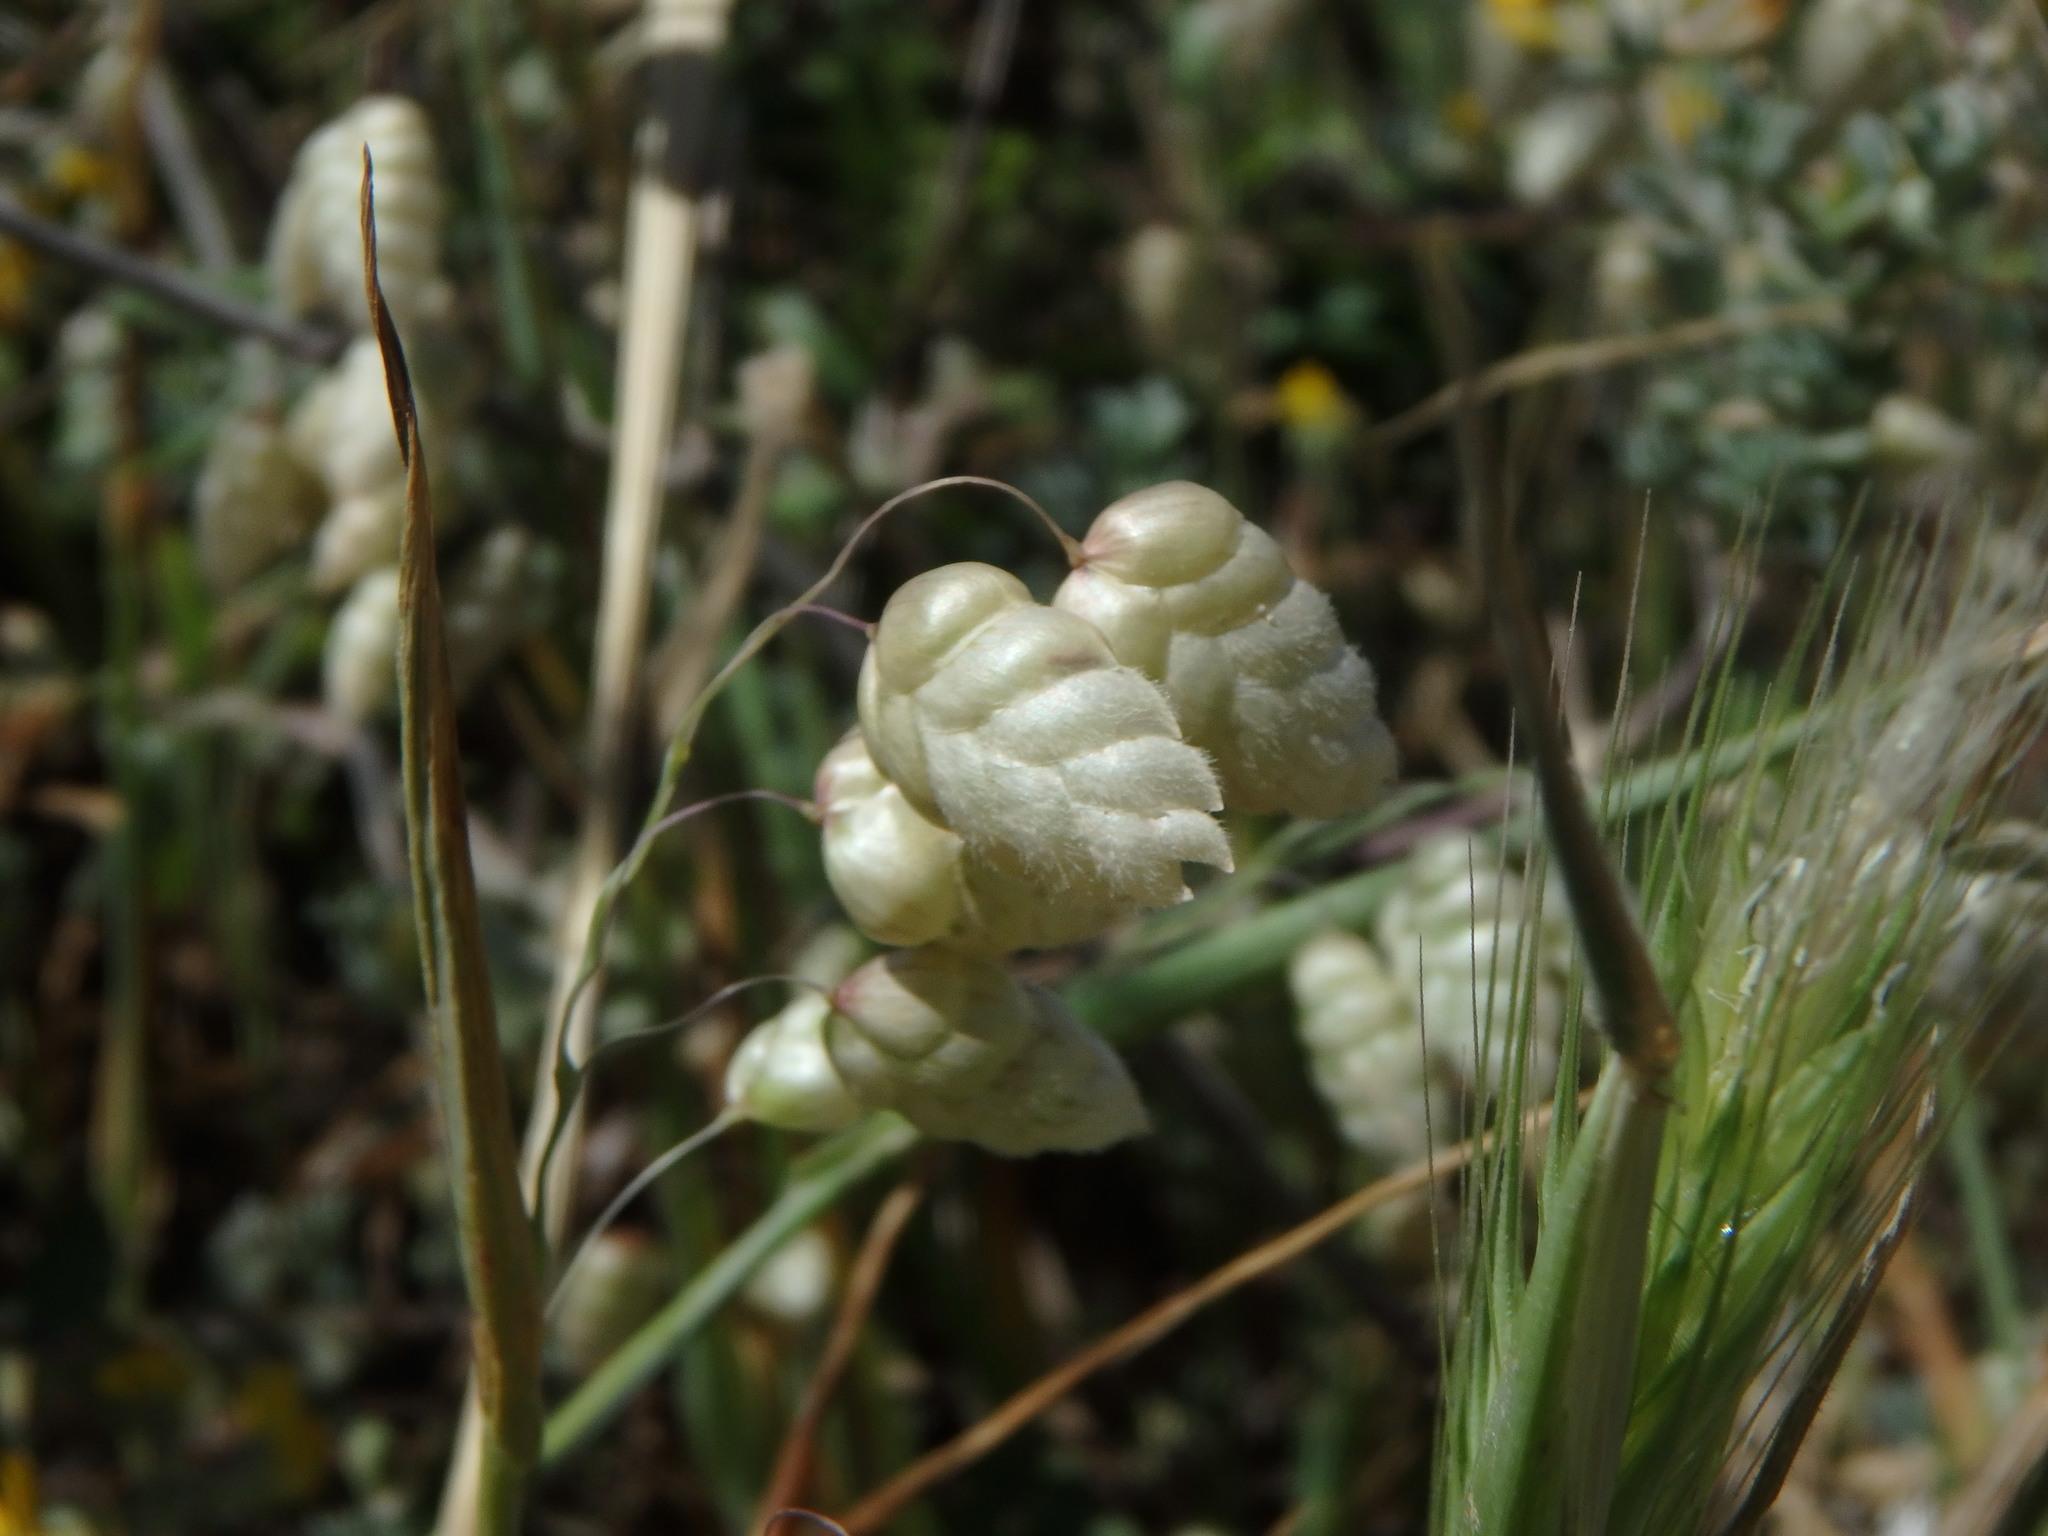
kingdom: Plantae
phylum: Tracheophyta
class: Liliopsida
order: Poales
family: Poaceae
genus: Briza
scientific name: Briza maxima
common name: Big quakinggrass
